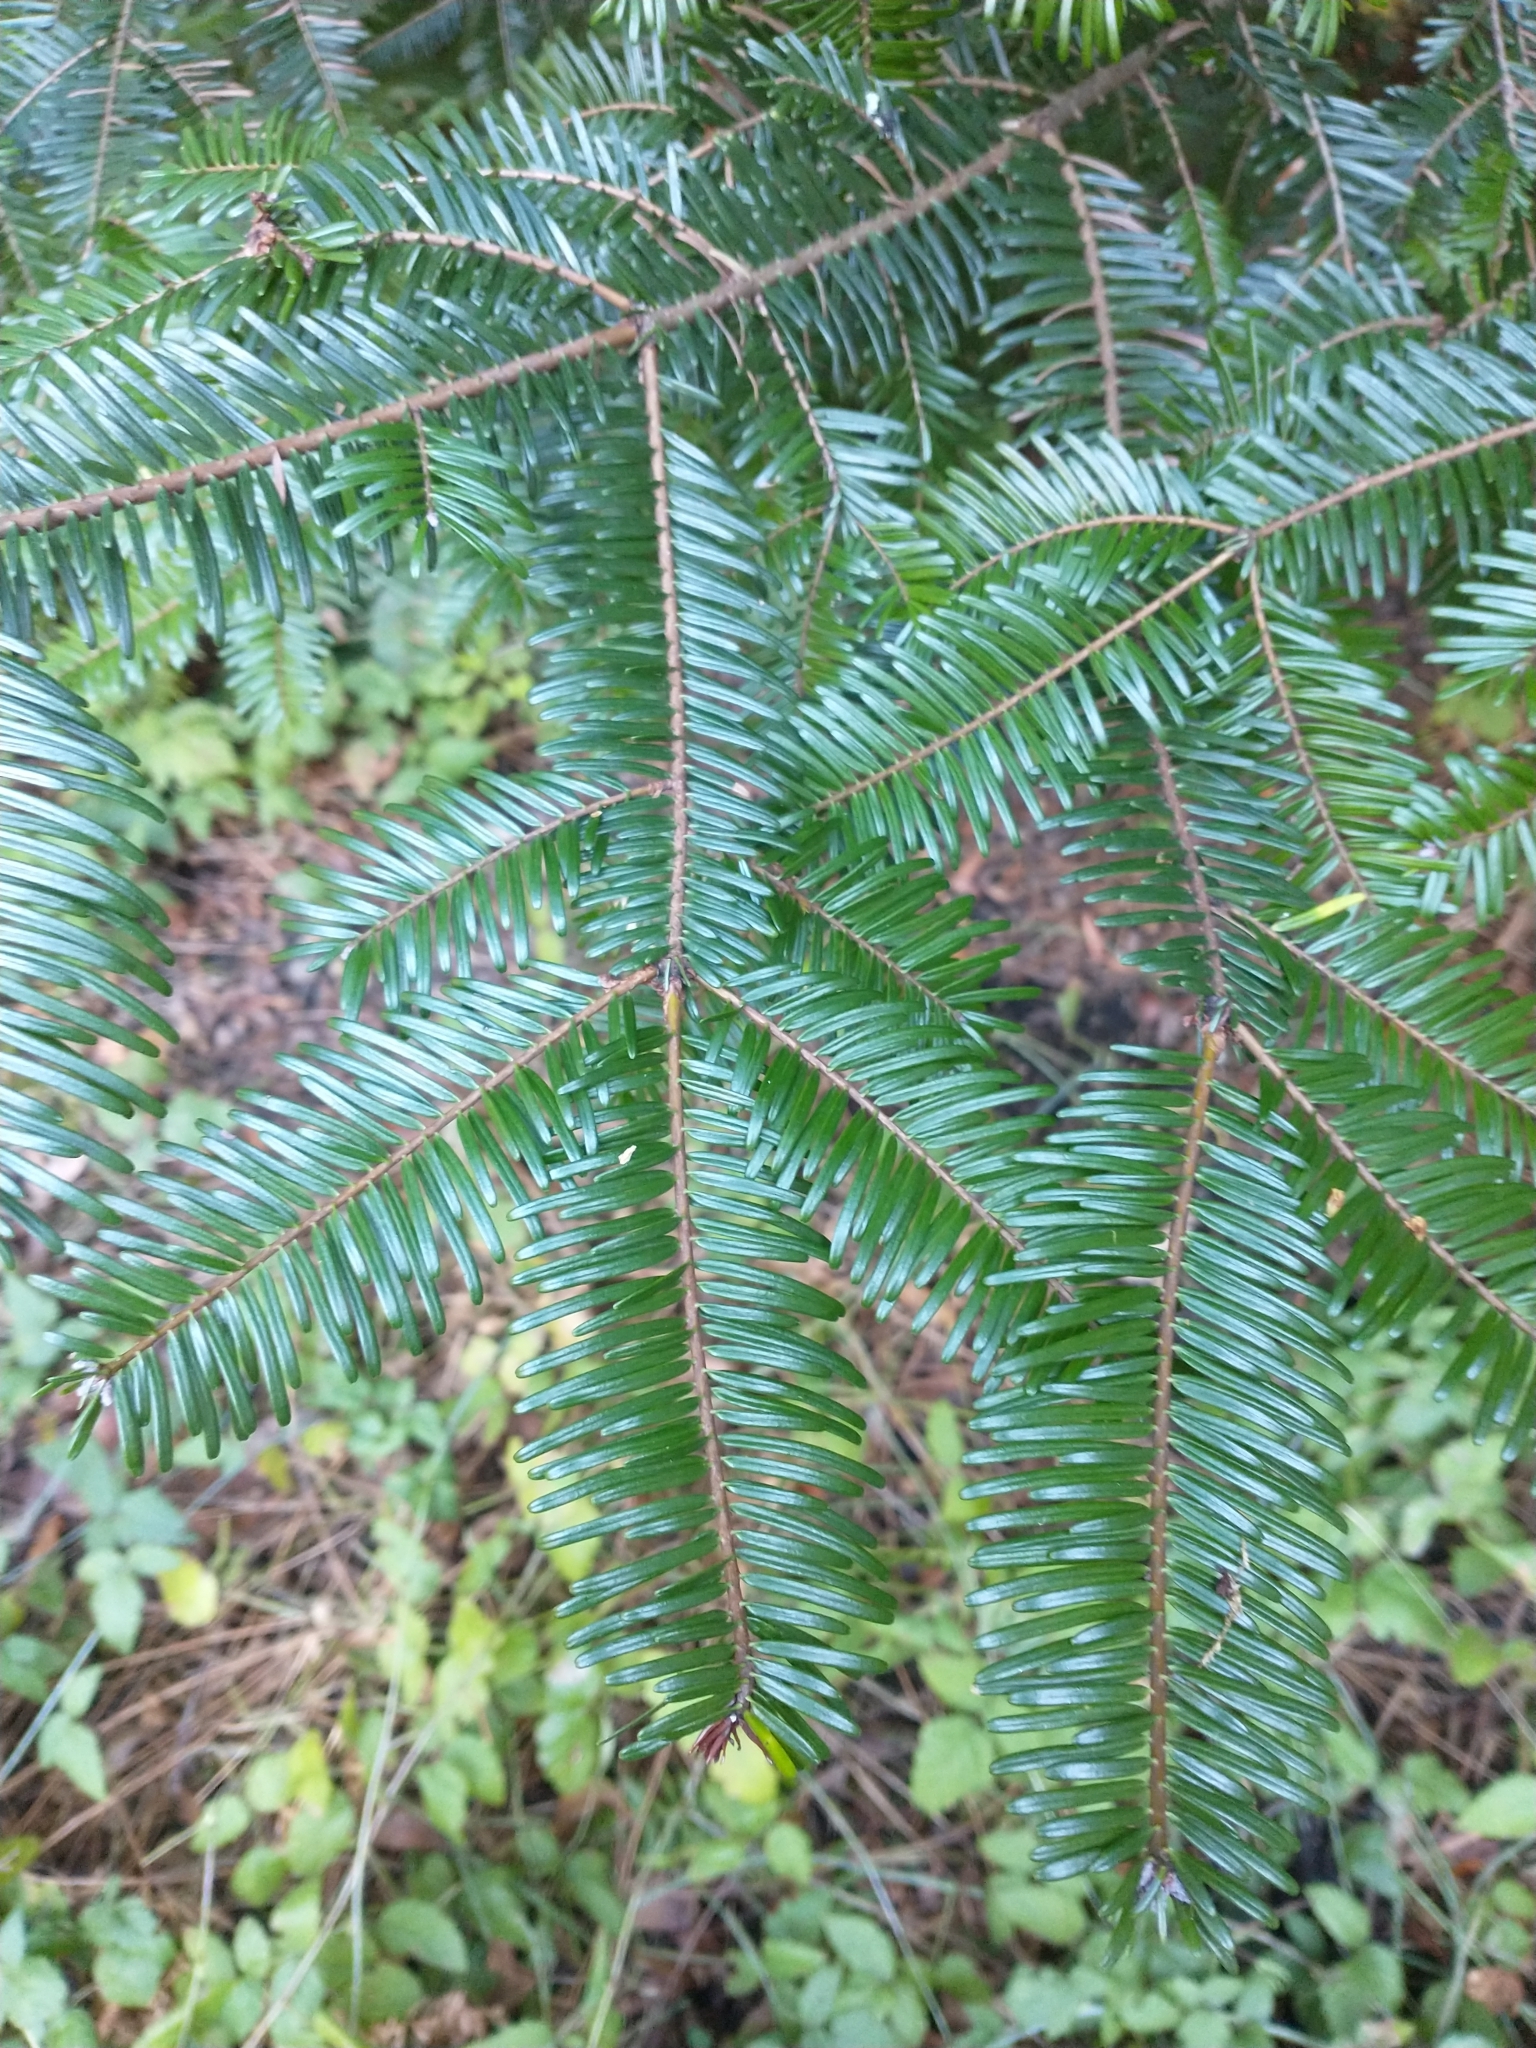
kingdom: Plantae
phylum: Tracheophyta
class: Pinopsida
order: Pinales
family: Pinaceae
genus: Abies
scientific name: Abies grandis
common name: Giant fir
